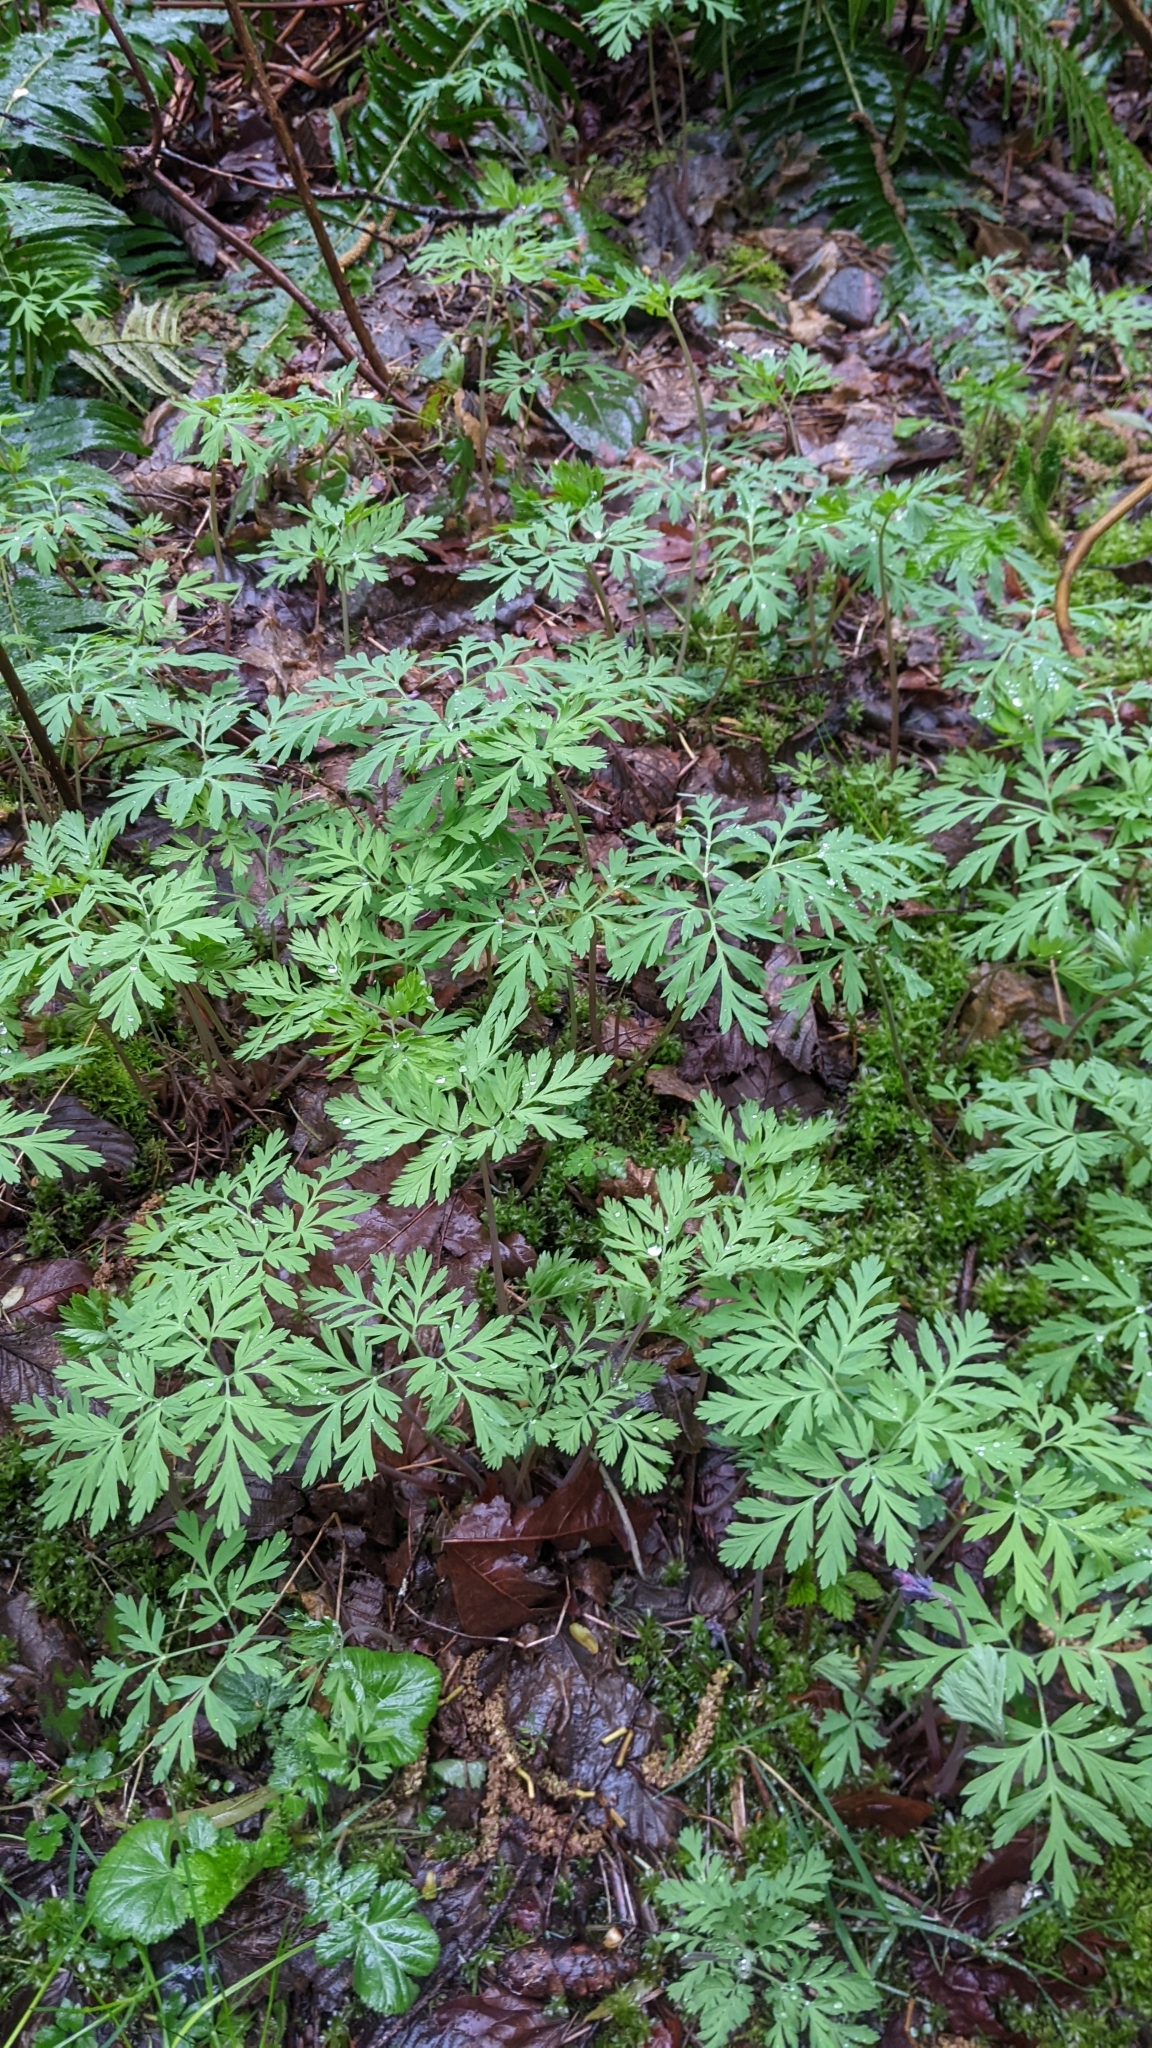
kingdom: Plantae
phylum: Tracheophyta
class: Magnoliopsida
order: Ranunculales
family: Papaveraceae
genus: Dicentra
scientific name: Dicentra formosa
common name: Bleeding-heart
